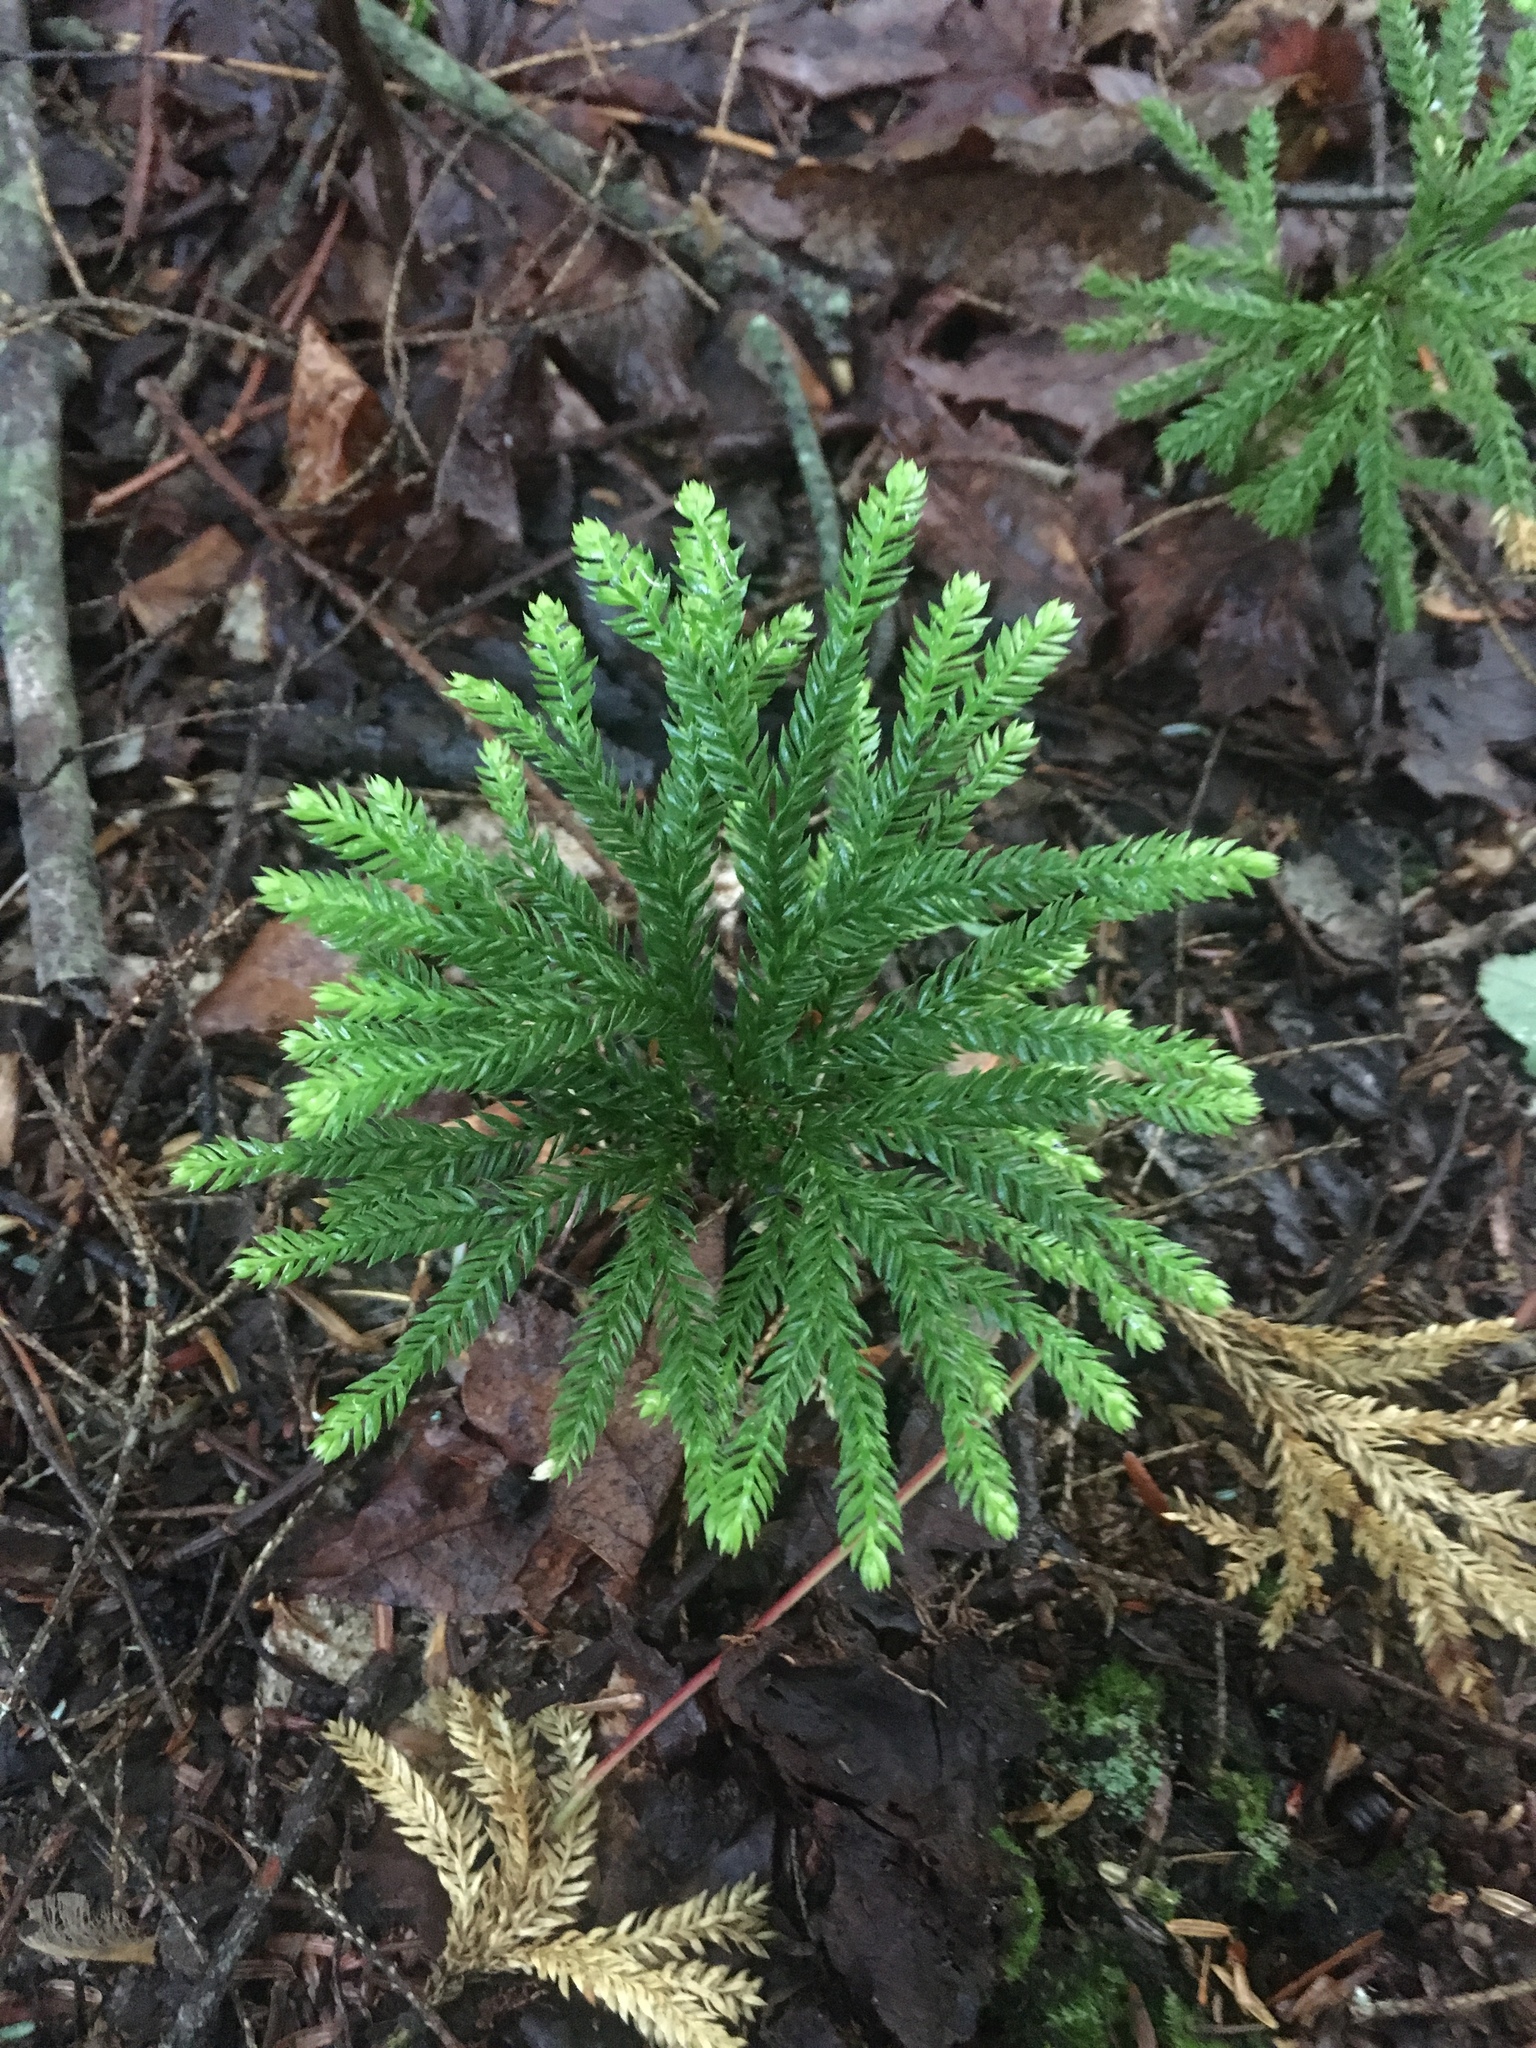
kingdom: Plantae
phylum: Tracheophyta
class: Lycopodiopsida
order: Lycopodiales
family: Lycopodiaceae
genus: Dendrolycopodium
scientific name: Dendrolycopodium obscurum
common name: Common ground-pine
